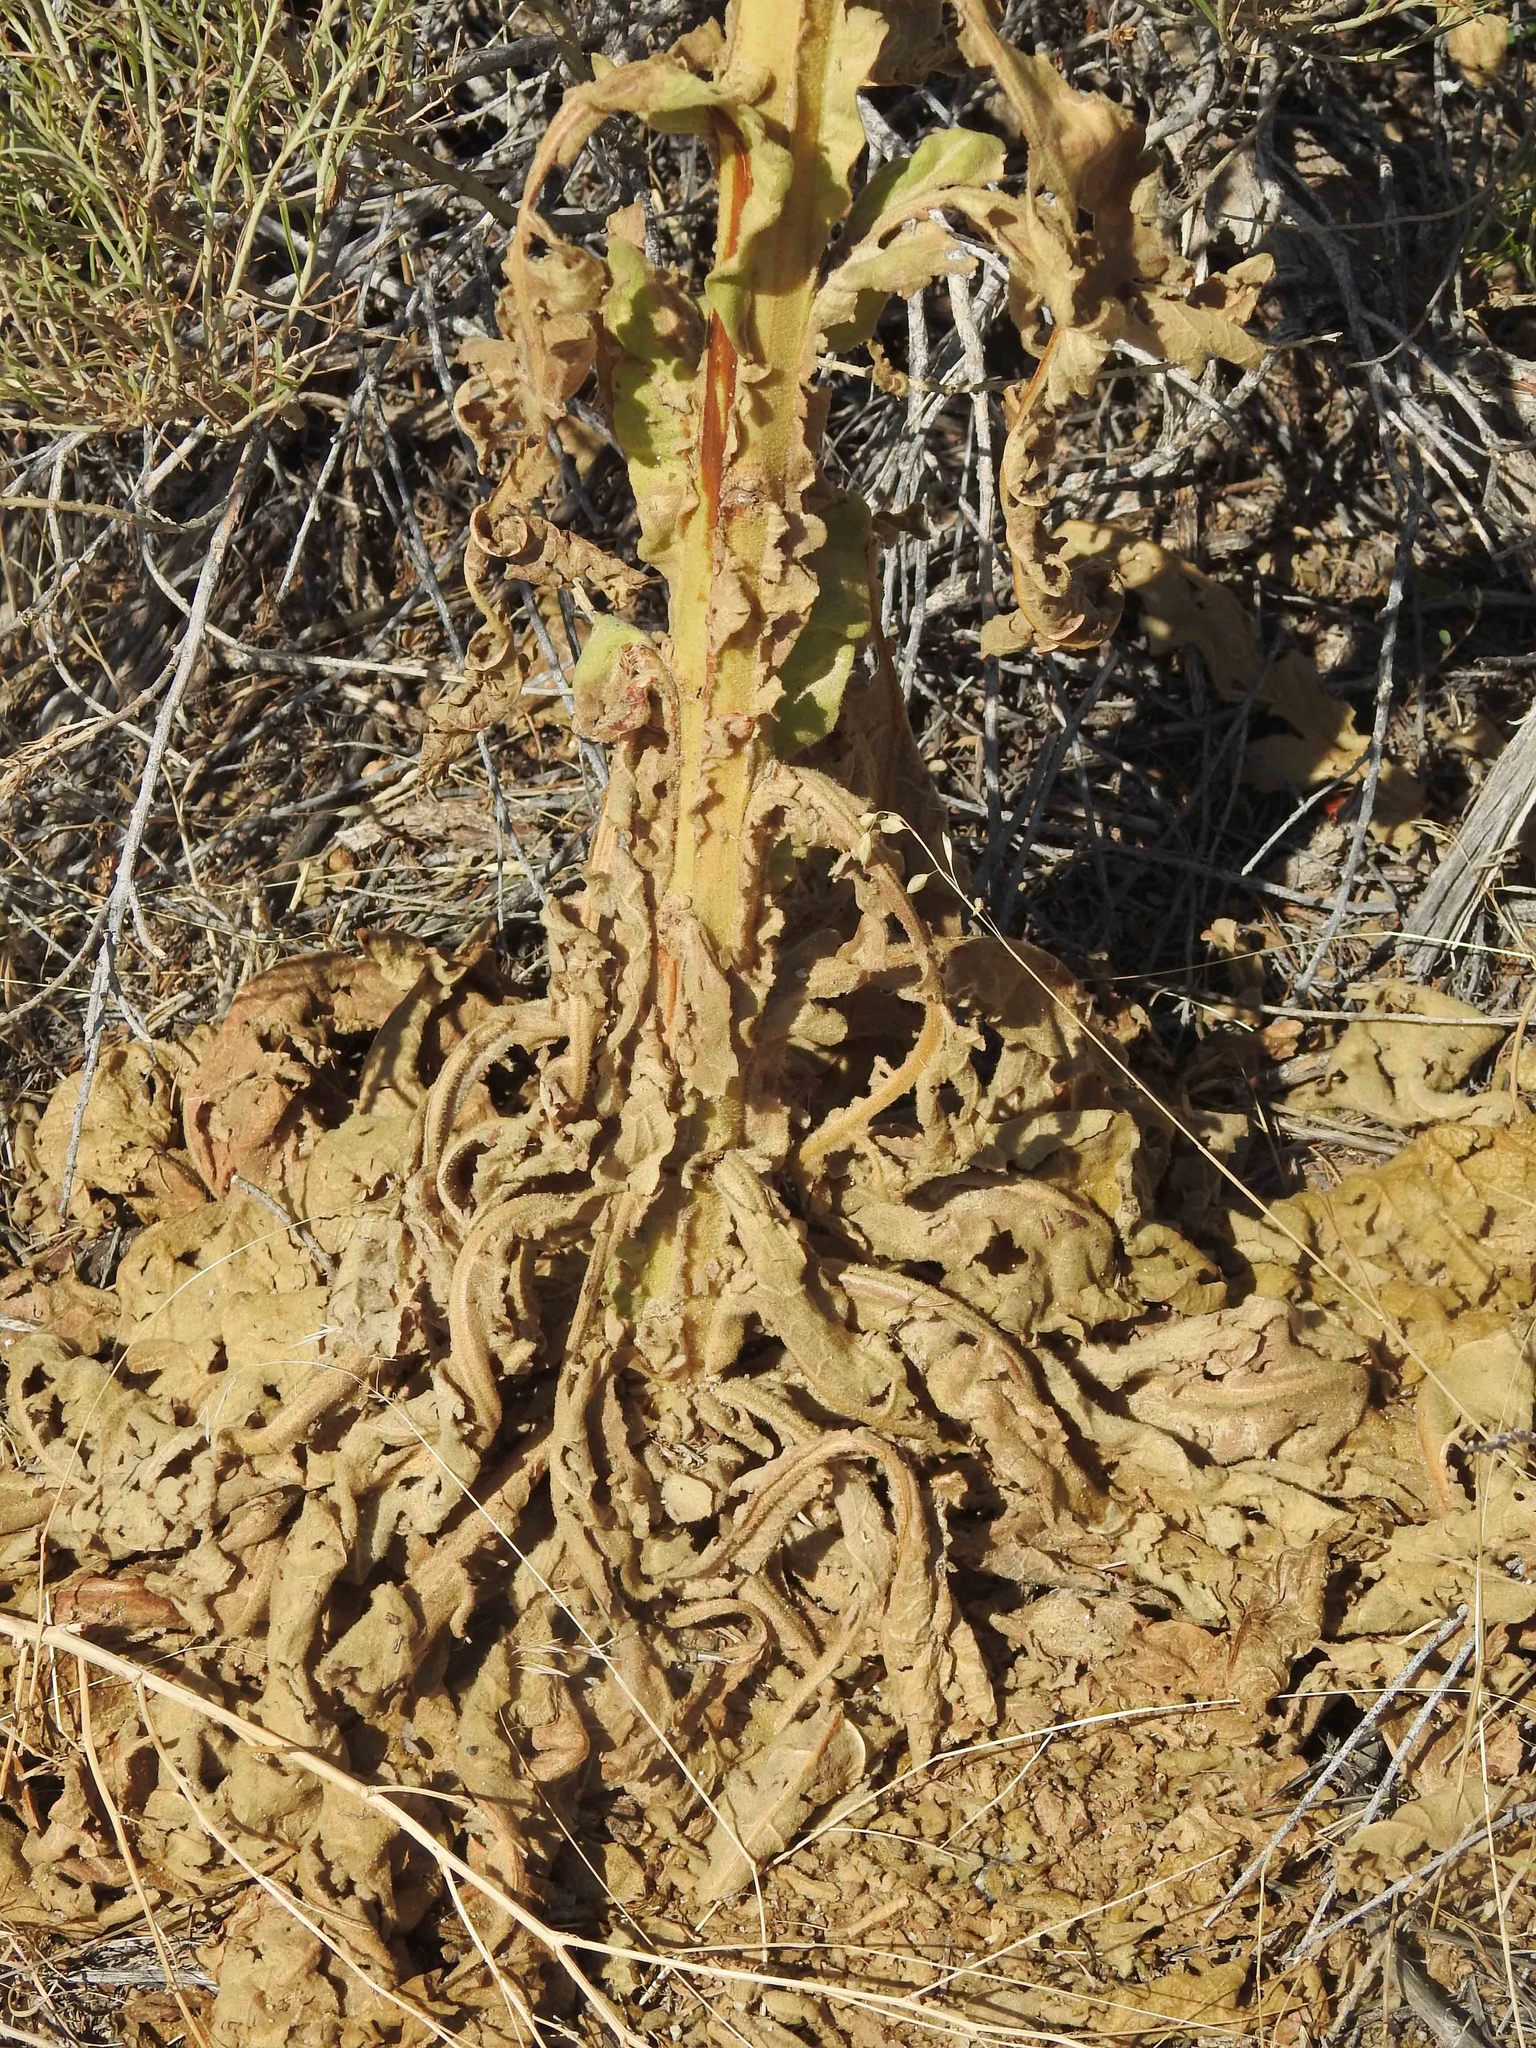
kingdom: Plantae
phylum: Tracheophyta
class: Magnoliopsida
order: Lamiales
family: Scrophulariaceae
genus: Verbascum
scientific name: Verbascum thapsus
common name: Common mullein
